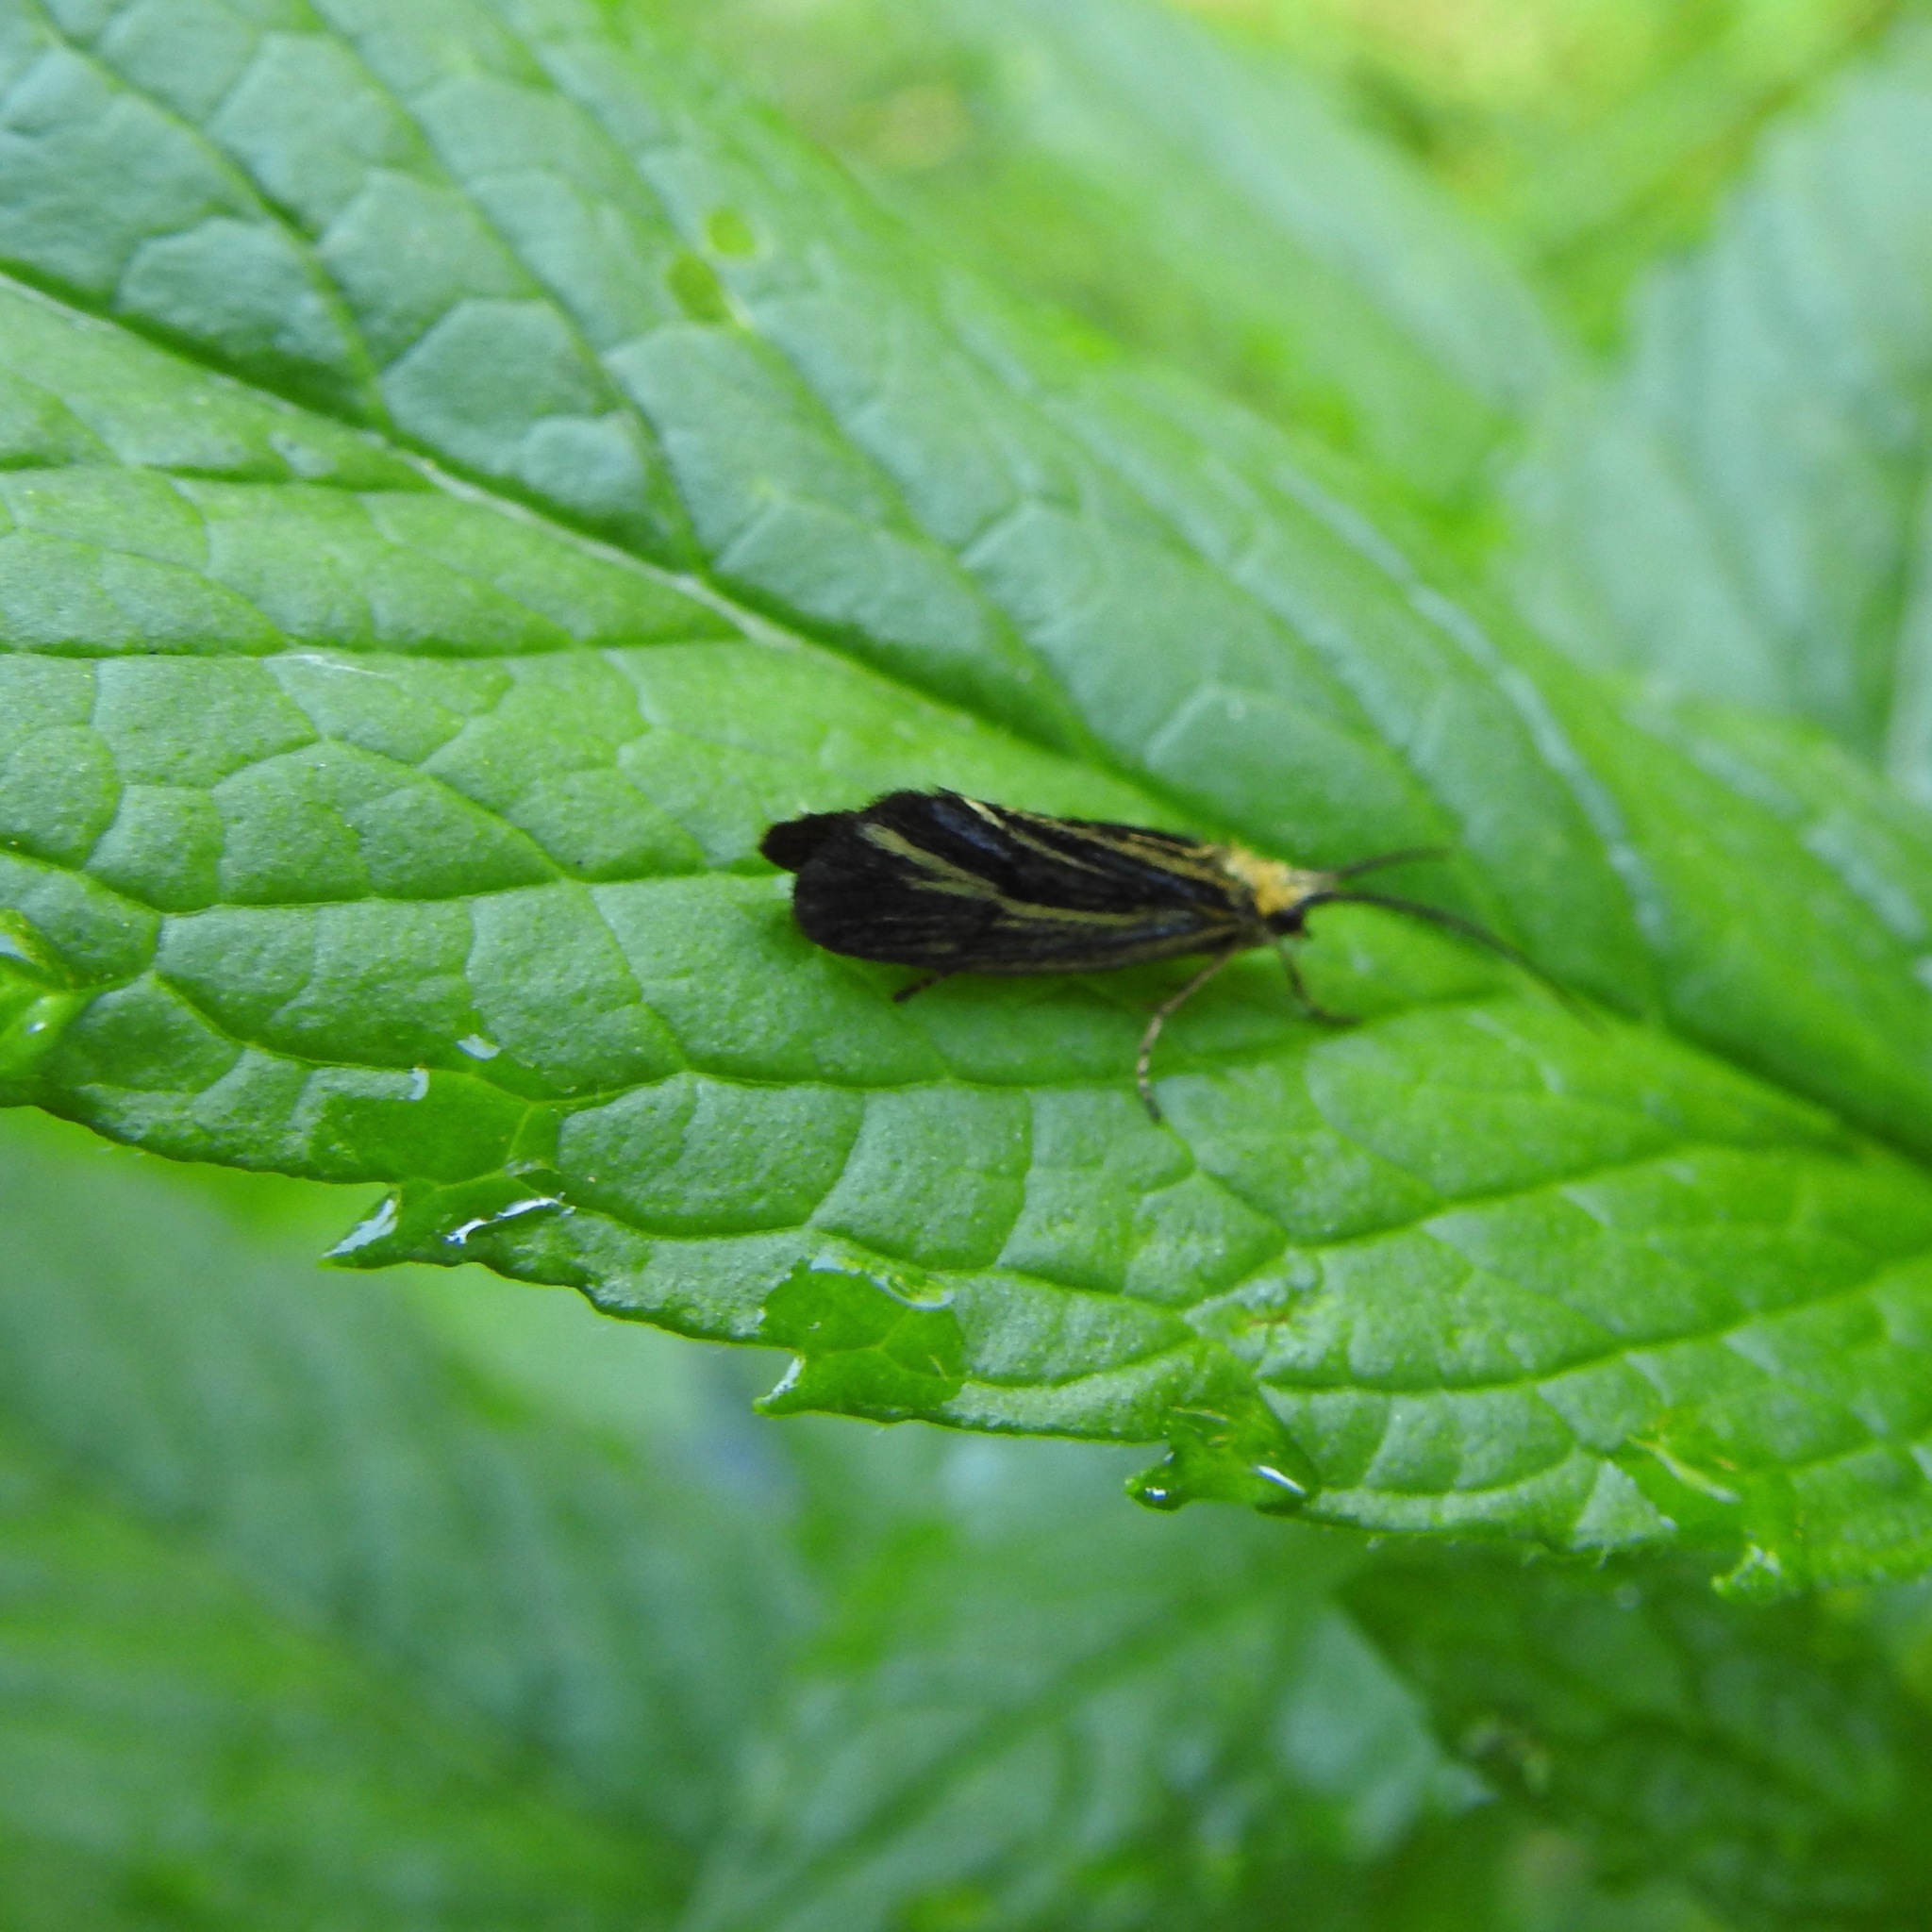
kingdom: Animalia
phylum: Arthropoda
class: Insecta
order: Trichoptera
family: Odontoceridae
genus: Nerophilus
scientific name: Nerophilus californicus
